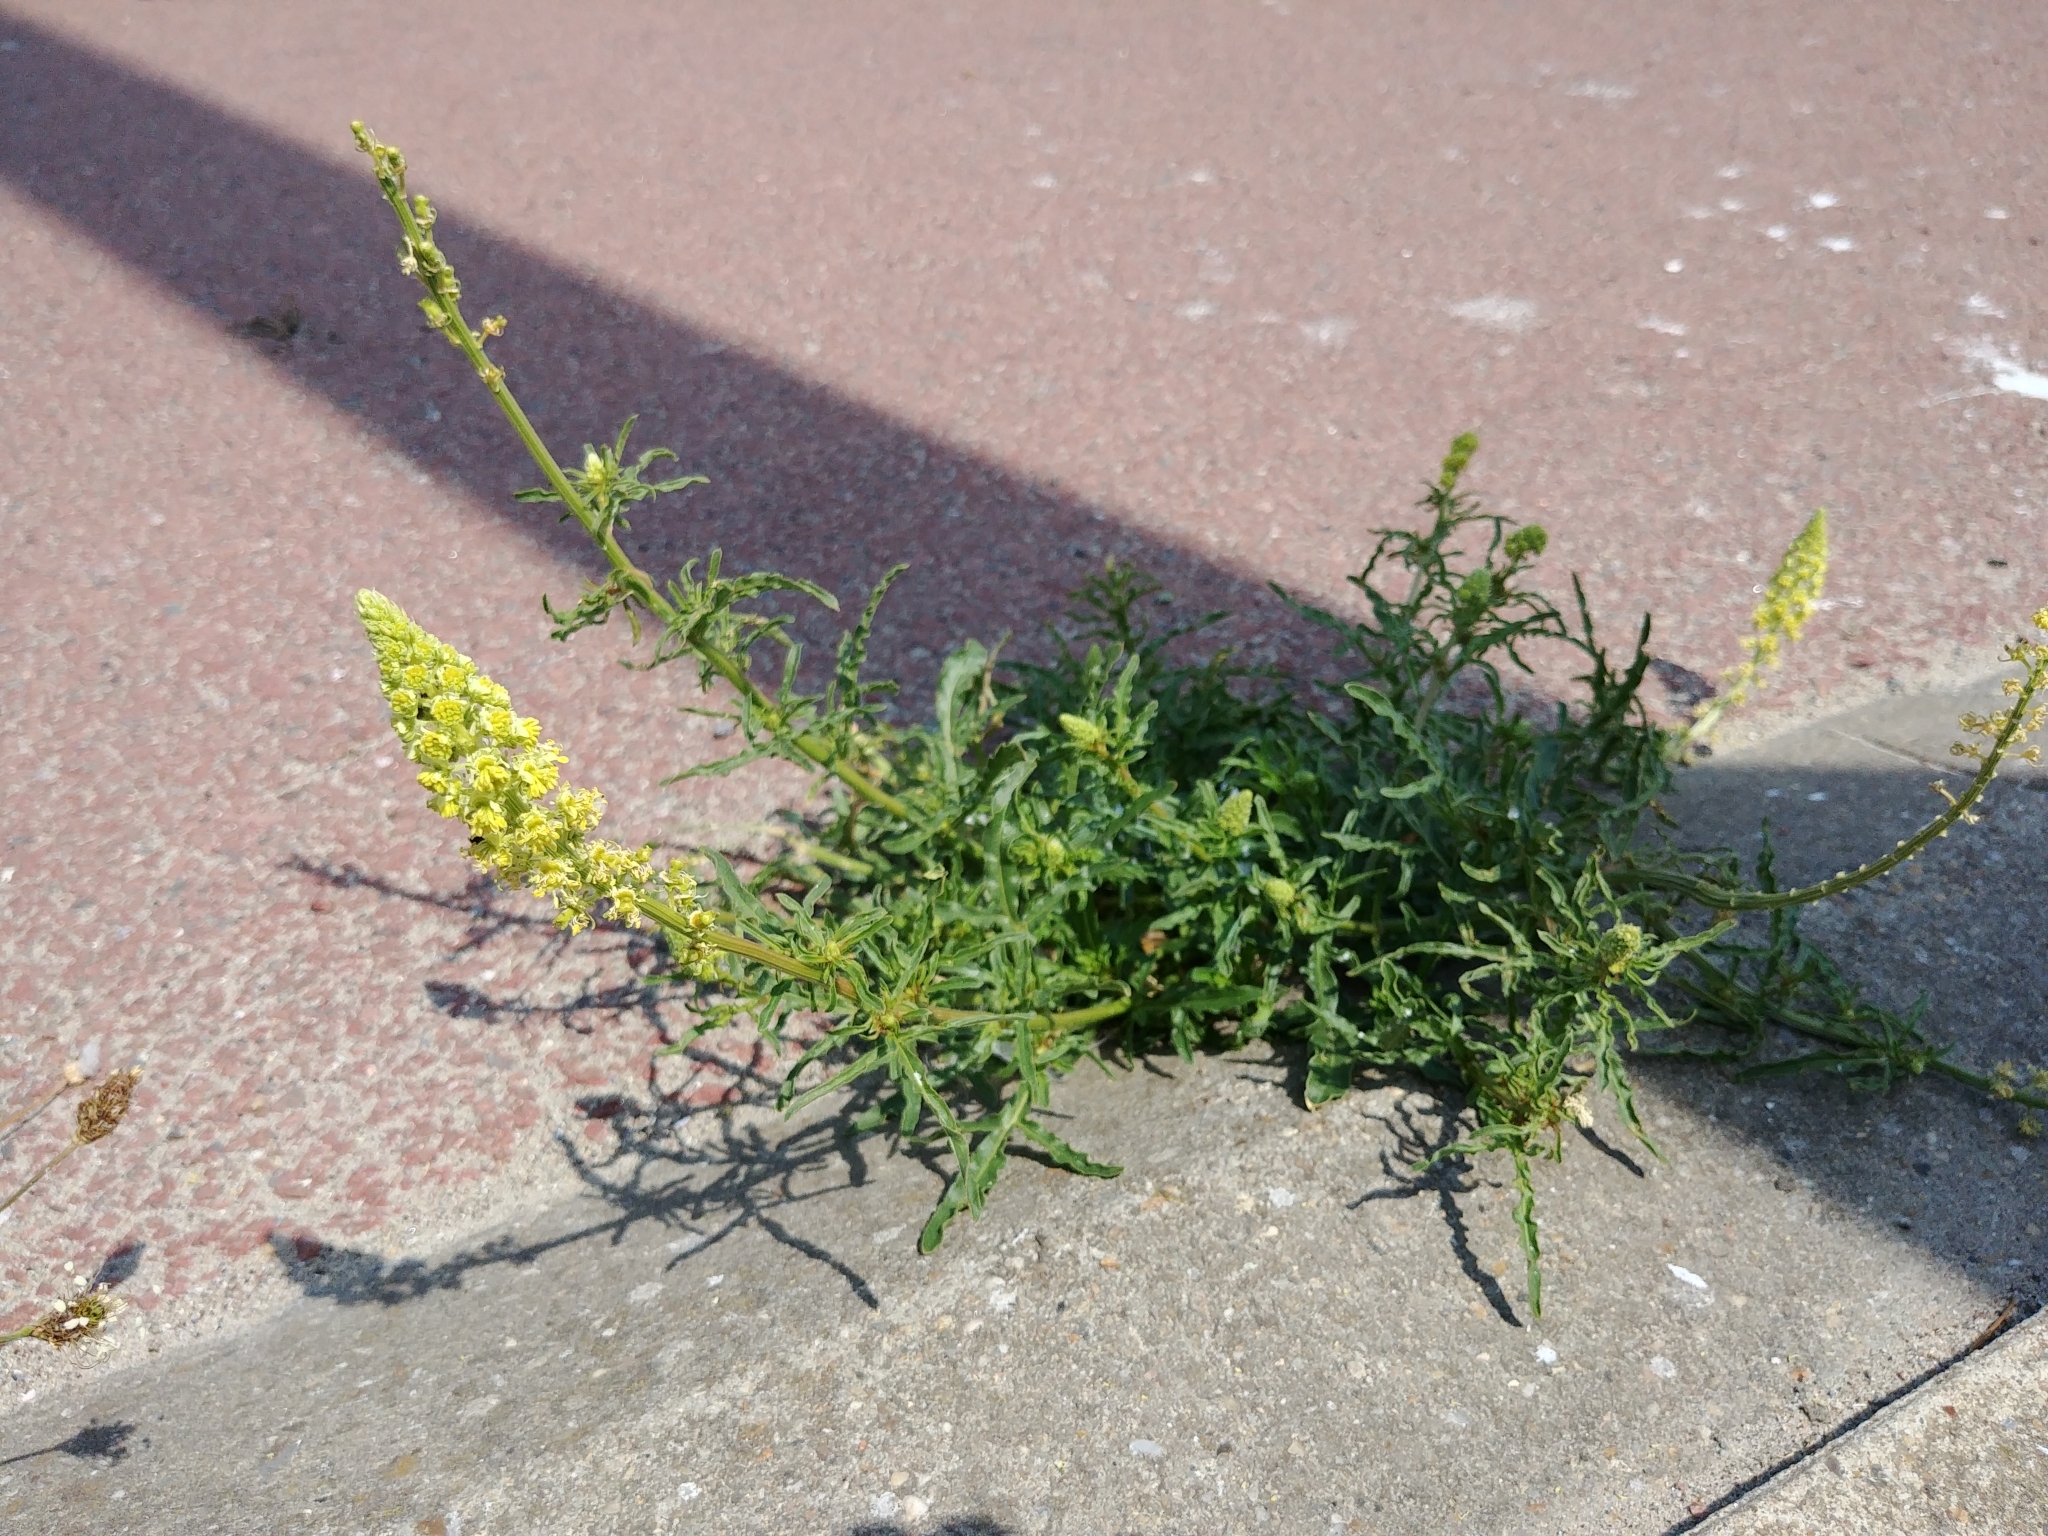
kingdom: Plantae
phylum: Tracheophyta
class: Magnoliopsida
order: Brassicales
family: Resedaceae
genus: Reseda
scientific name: Reseda lutea
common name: Wild mignonette
